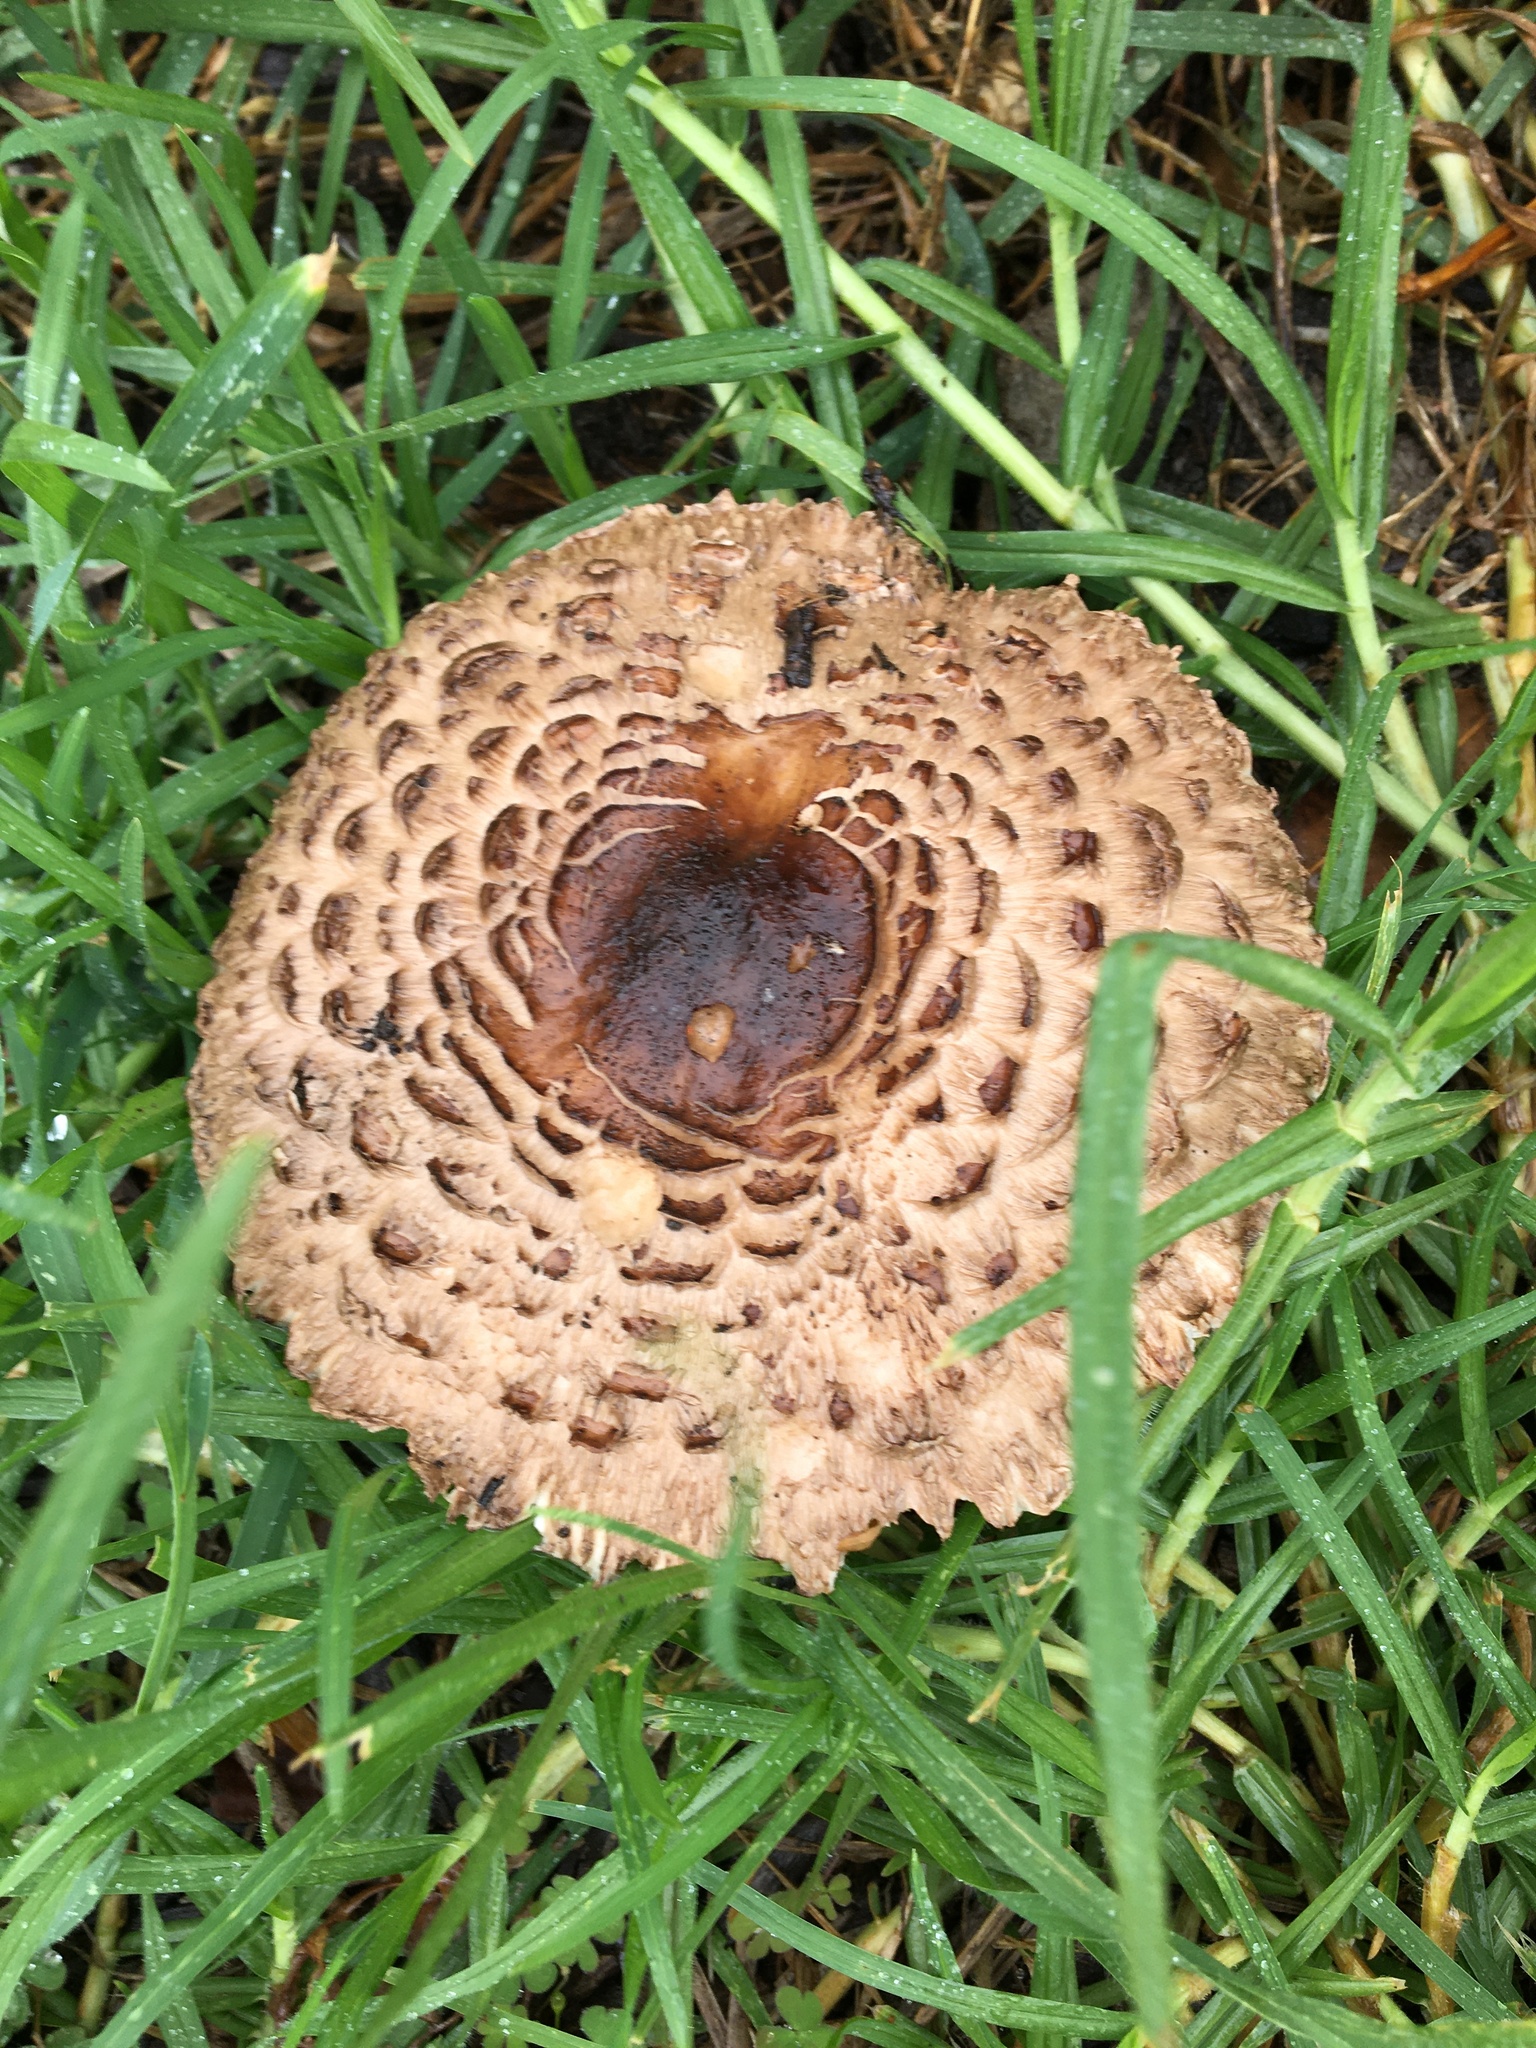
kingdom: Fungi
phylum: Basidiomycota
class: Agaricomycetes
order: Agaricales
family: Agaricaceae
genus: Chlorophyllum
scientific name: Chlorophyllum brunneum
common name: Brown parasol
